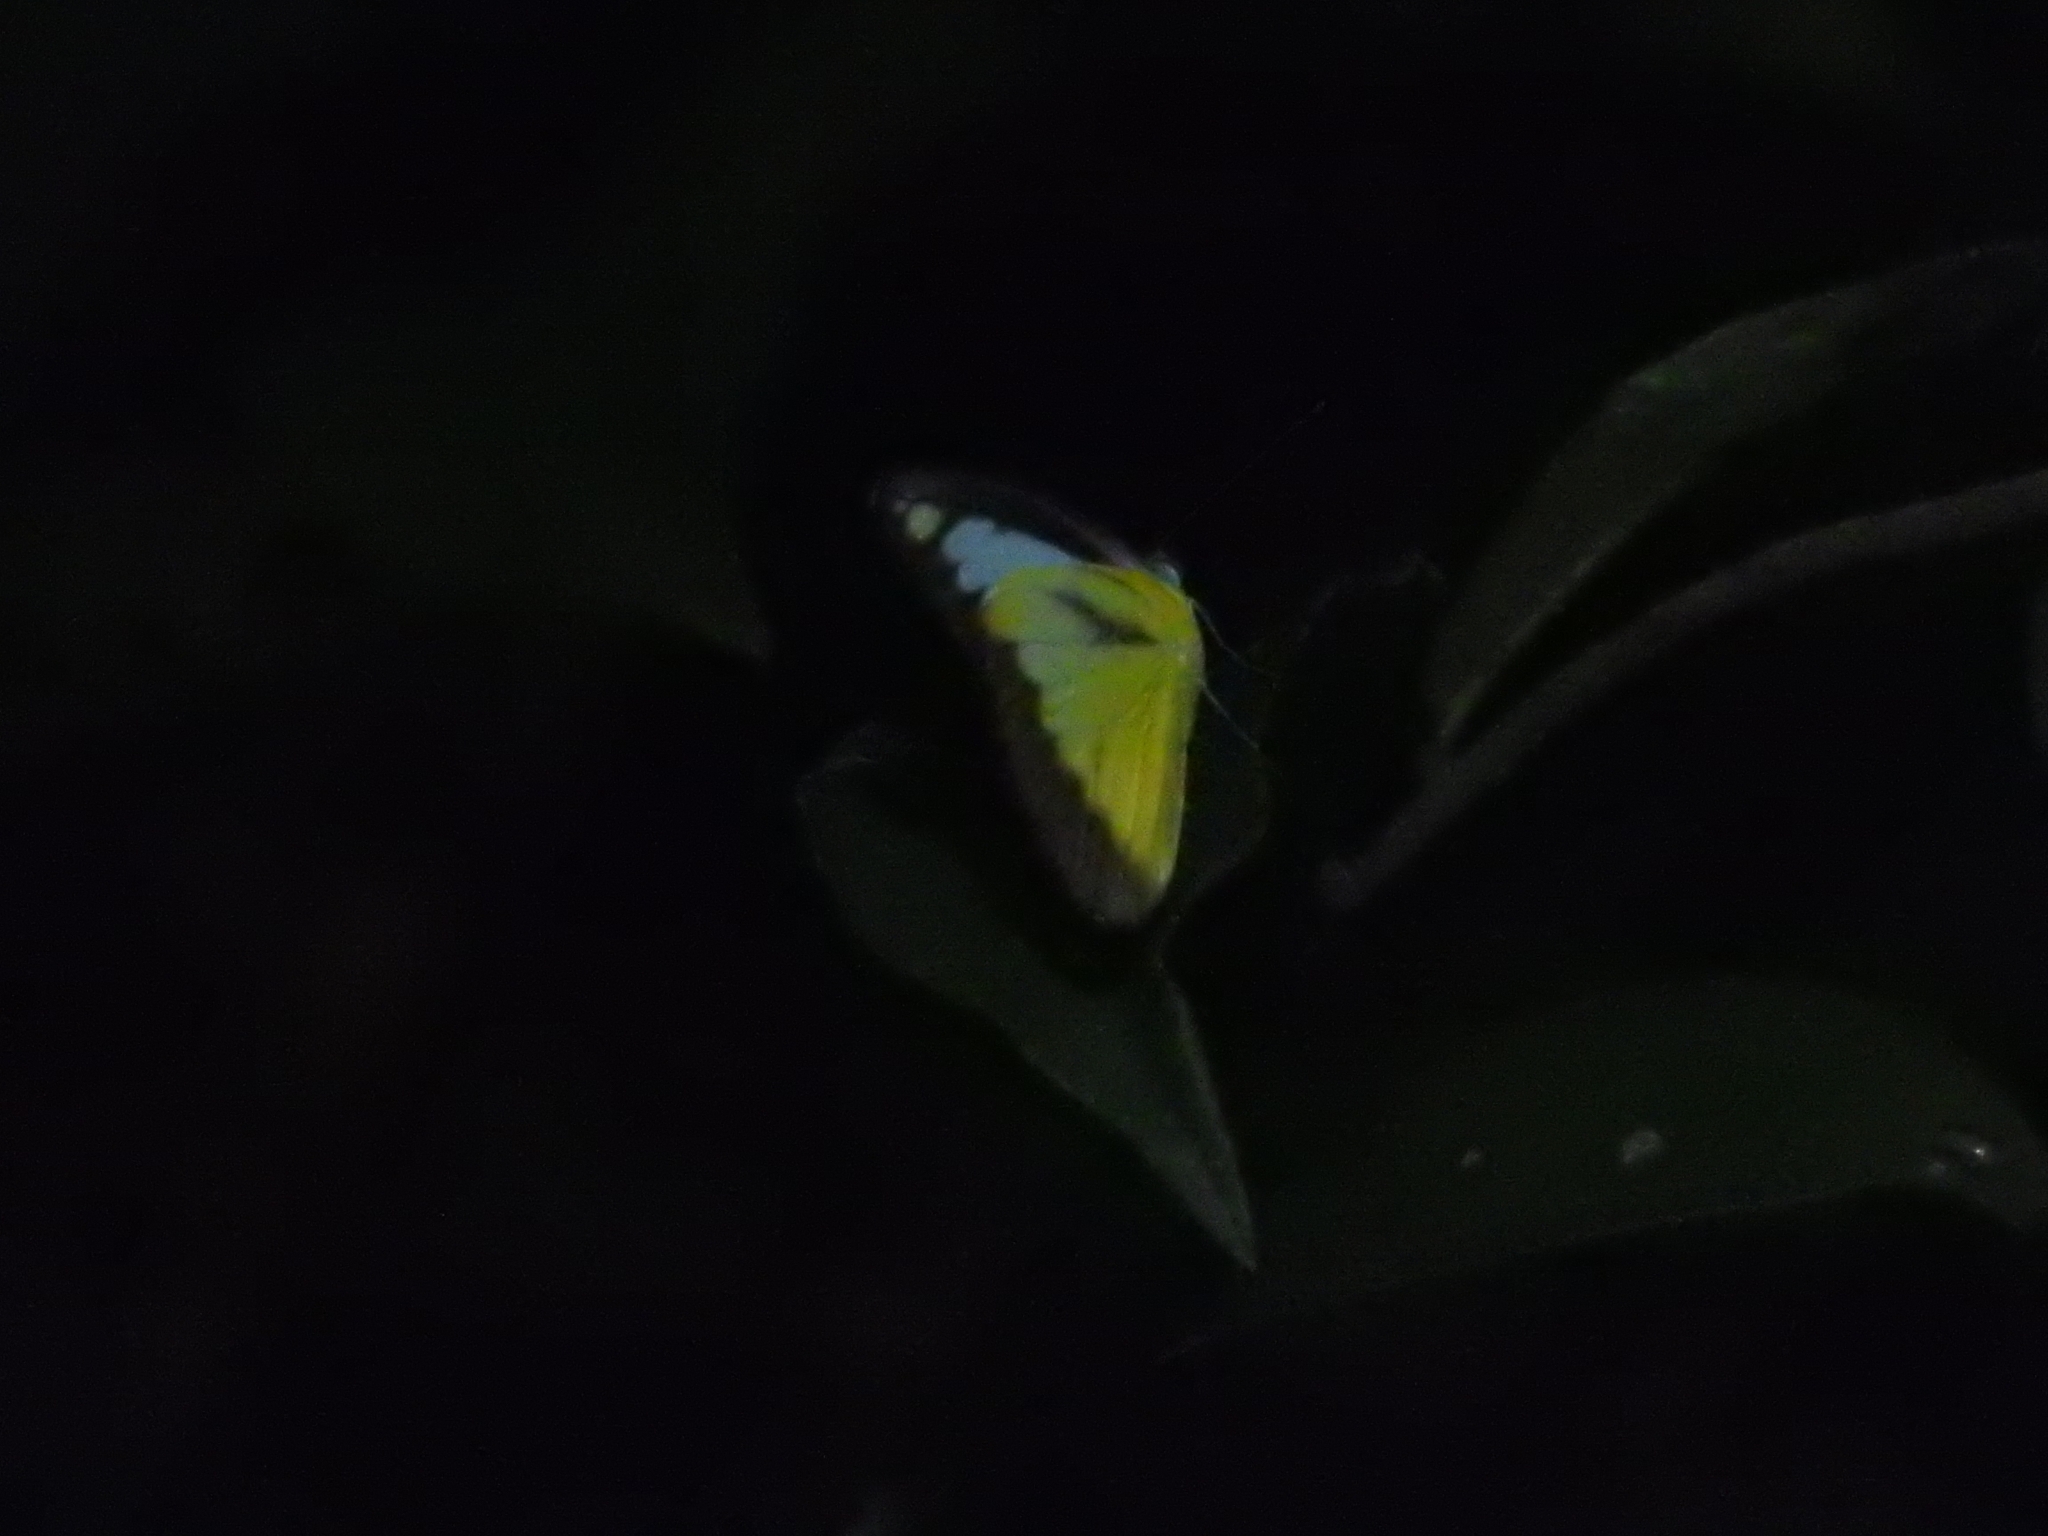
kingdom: Animalia
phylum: Arthropoda
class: Insecta
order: Lepidoptera
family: Pieridae
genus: Appias
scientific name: Appias lyncida
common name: Chocolate albatross
